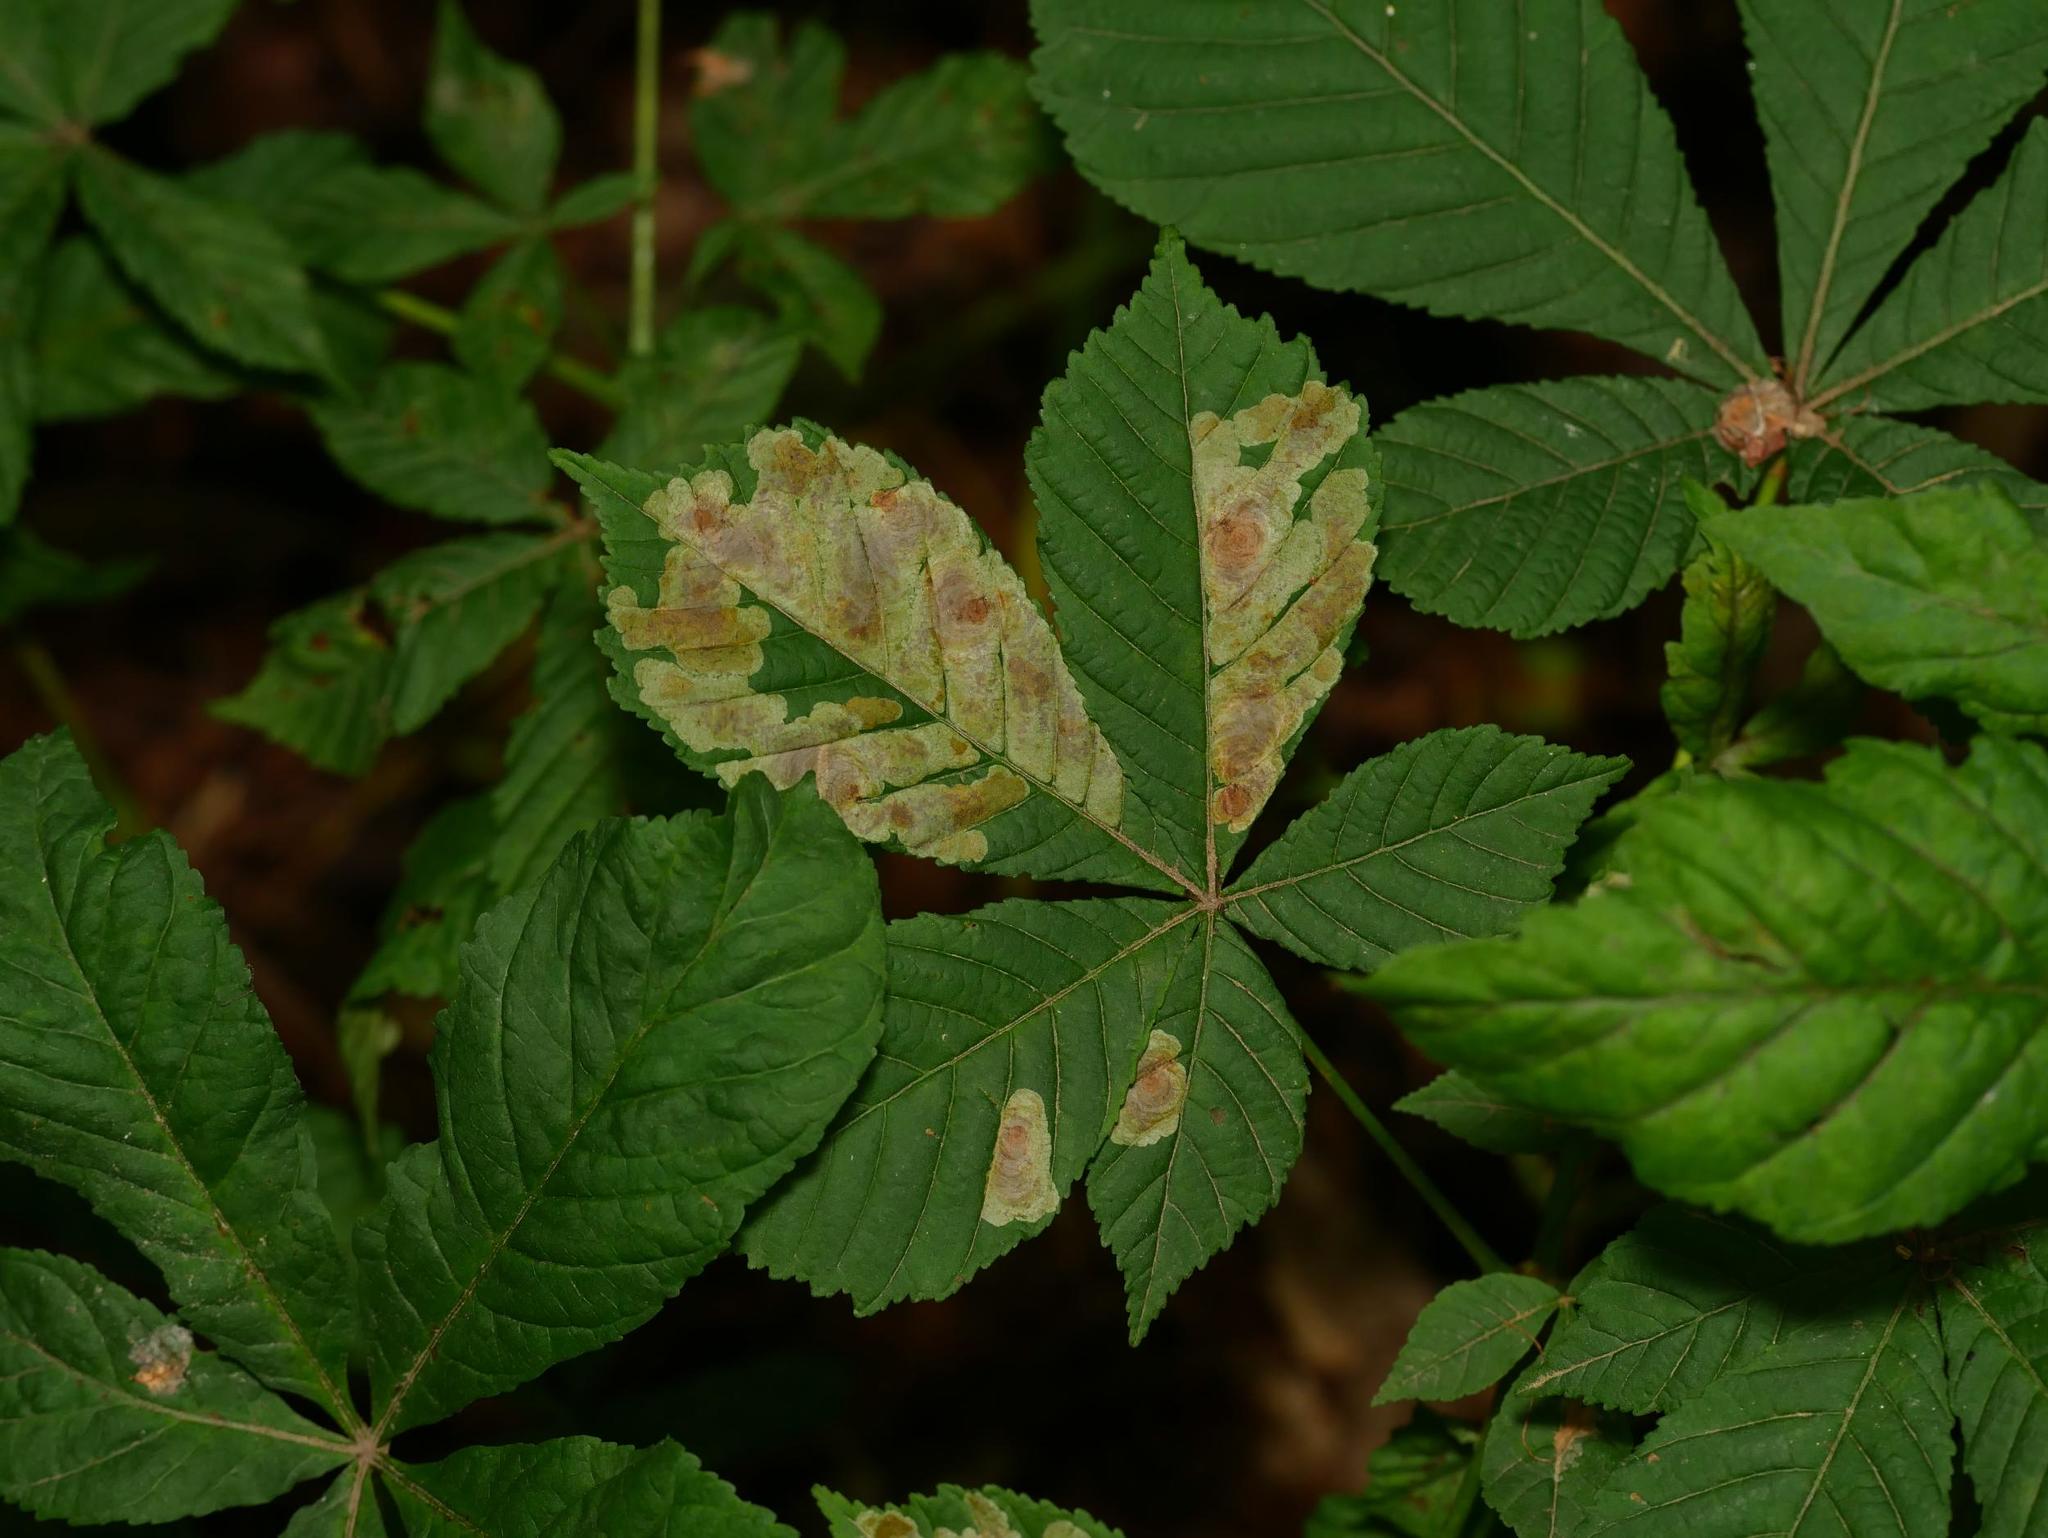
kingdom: Plantae
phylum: Tracheophyta
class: Magnoliopsida
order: Sapindales
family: Sapindaceae
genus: Aesculus
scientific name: Aesculus hippocastanum
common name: Horse-chestnut
